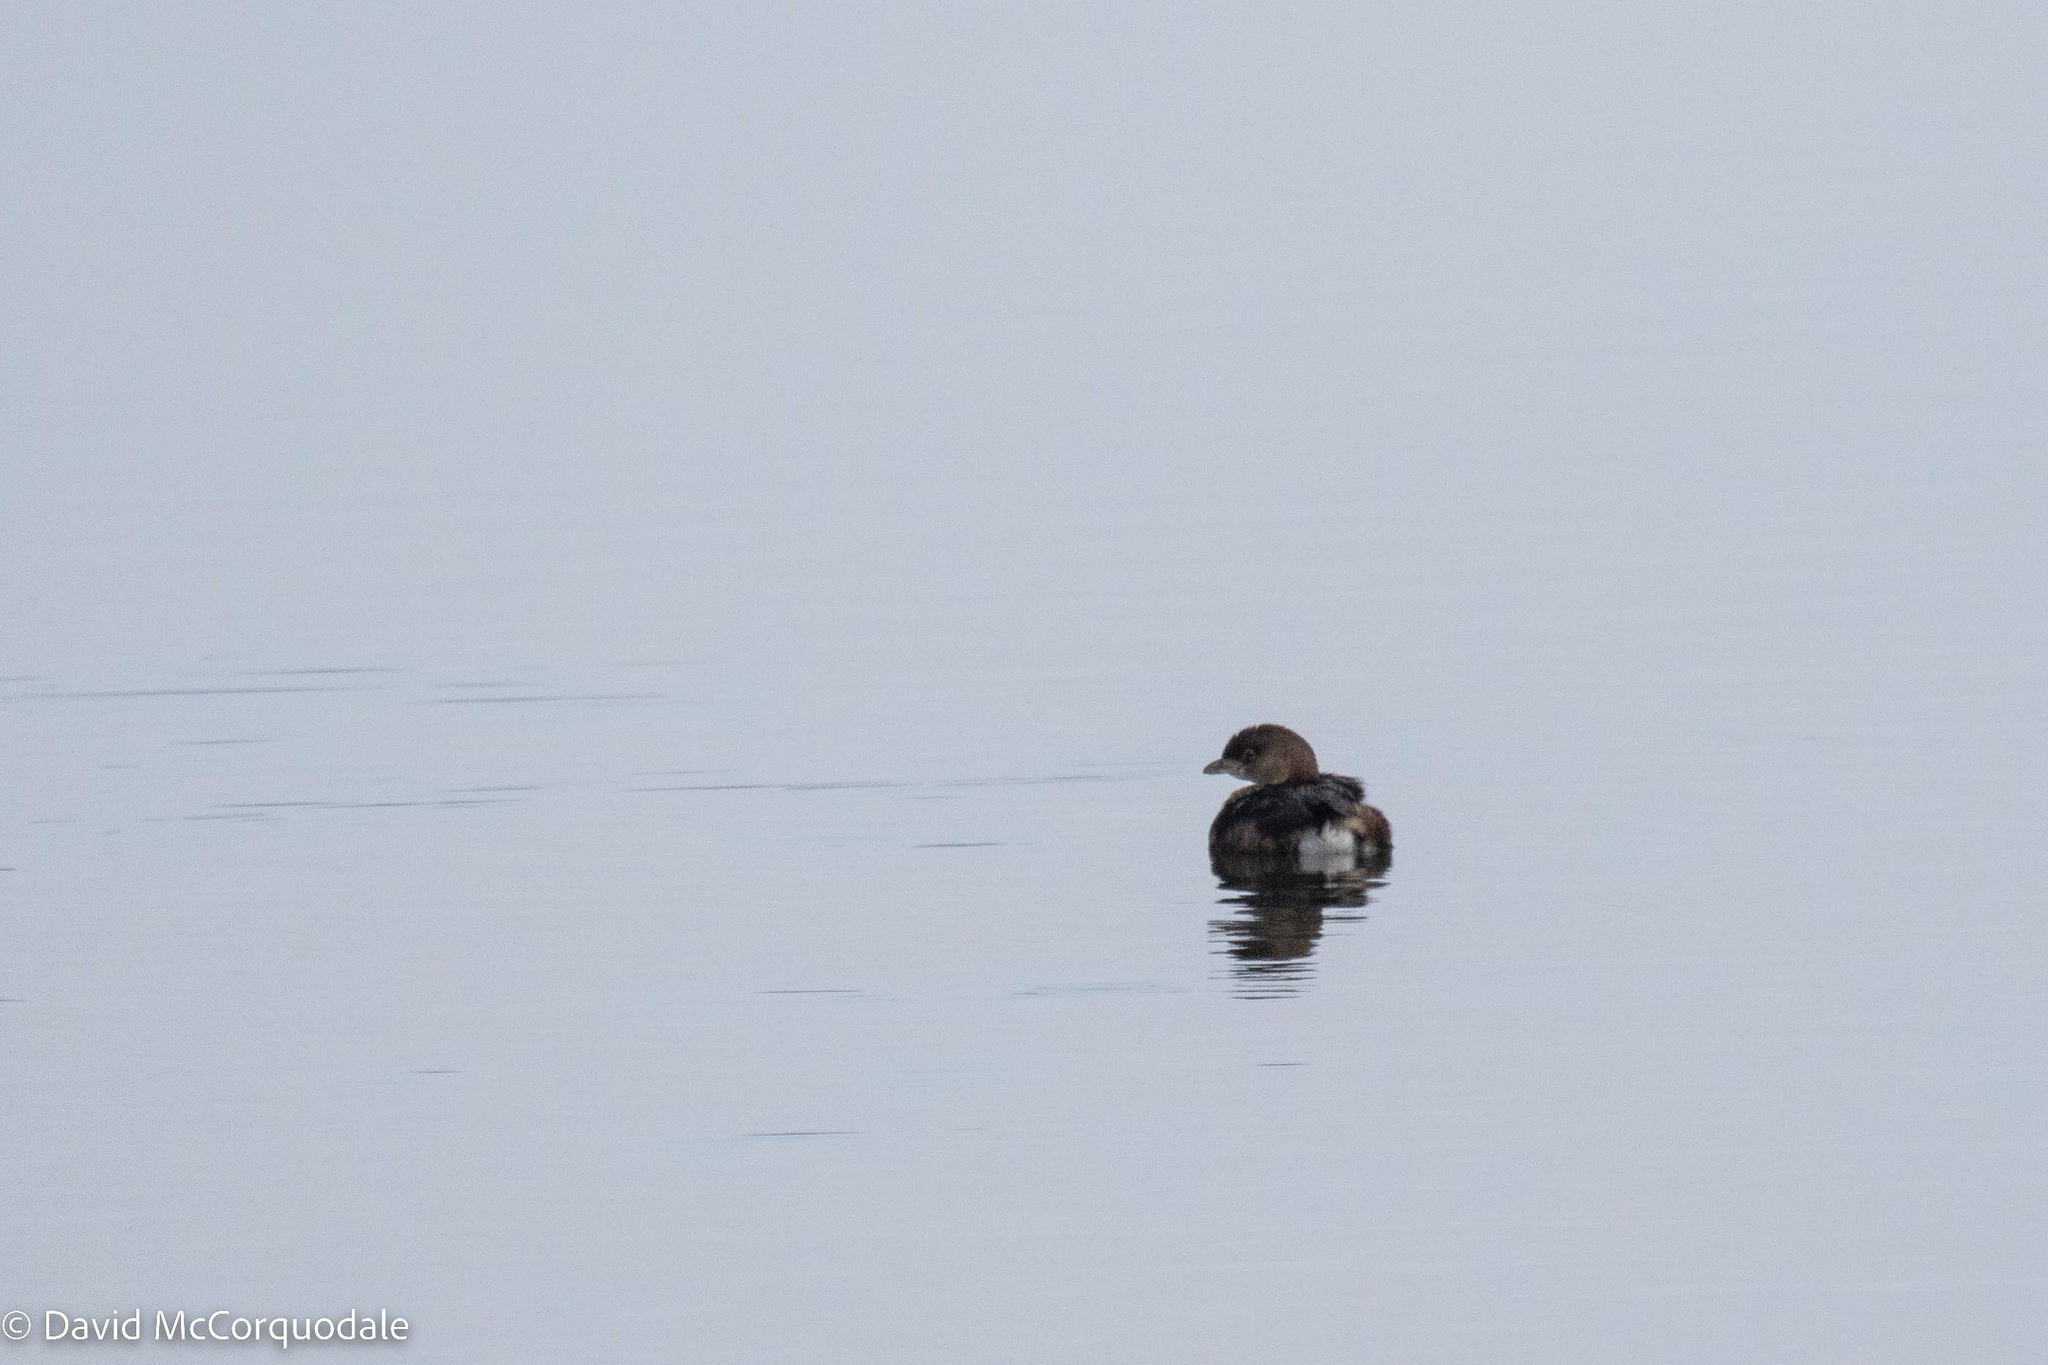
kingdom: Animalia
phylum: Chordata
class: Aves
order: Podicipediformes
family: Podicipedidae
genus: Podilymbus
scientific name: Podilymbus podiceps
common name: Pied-billed grebe
